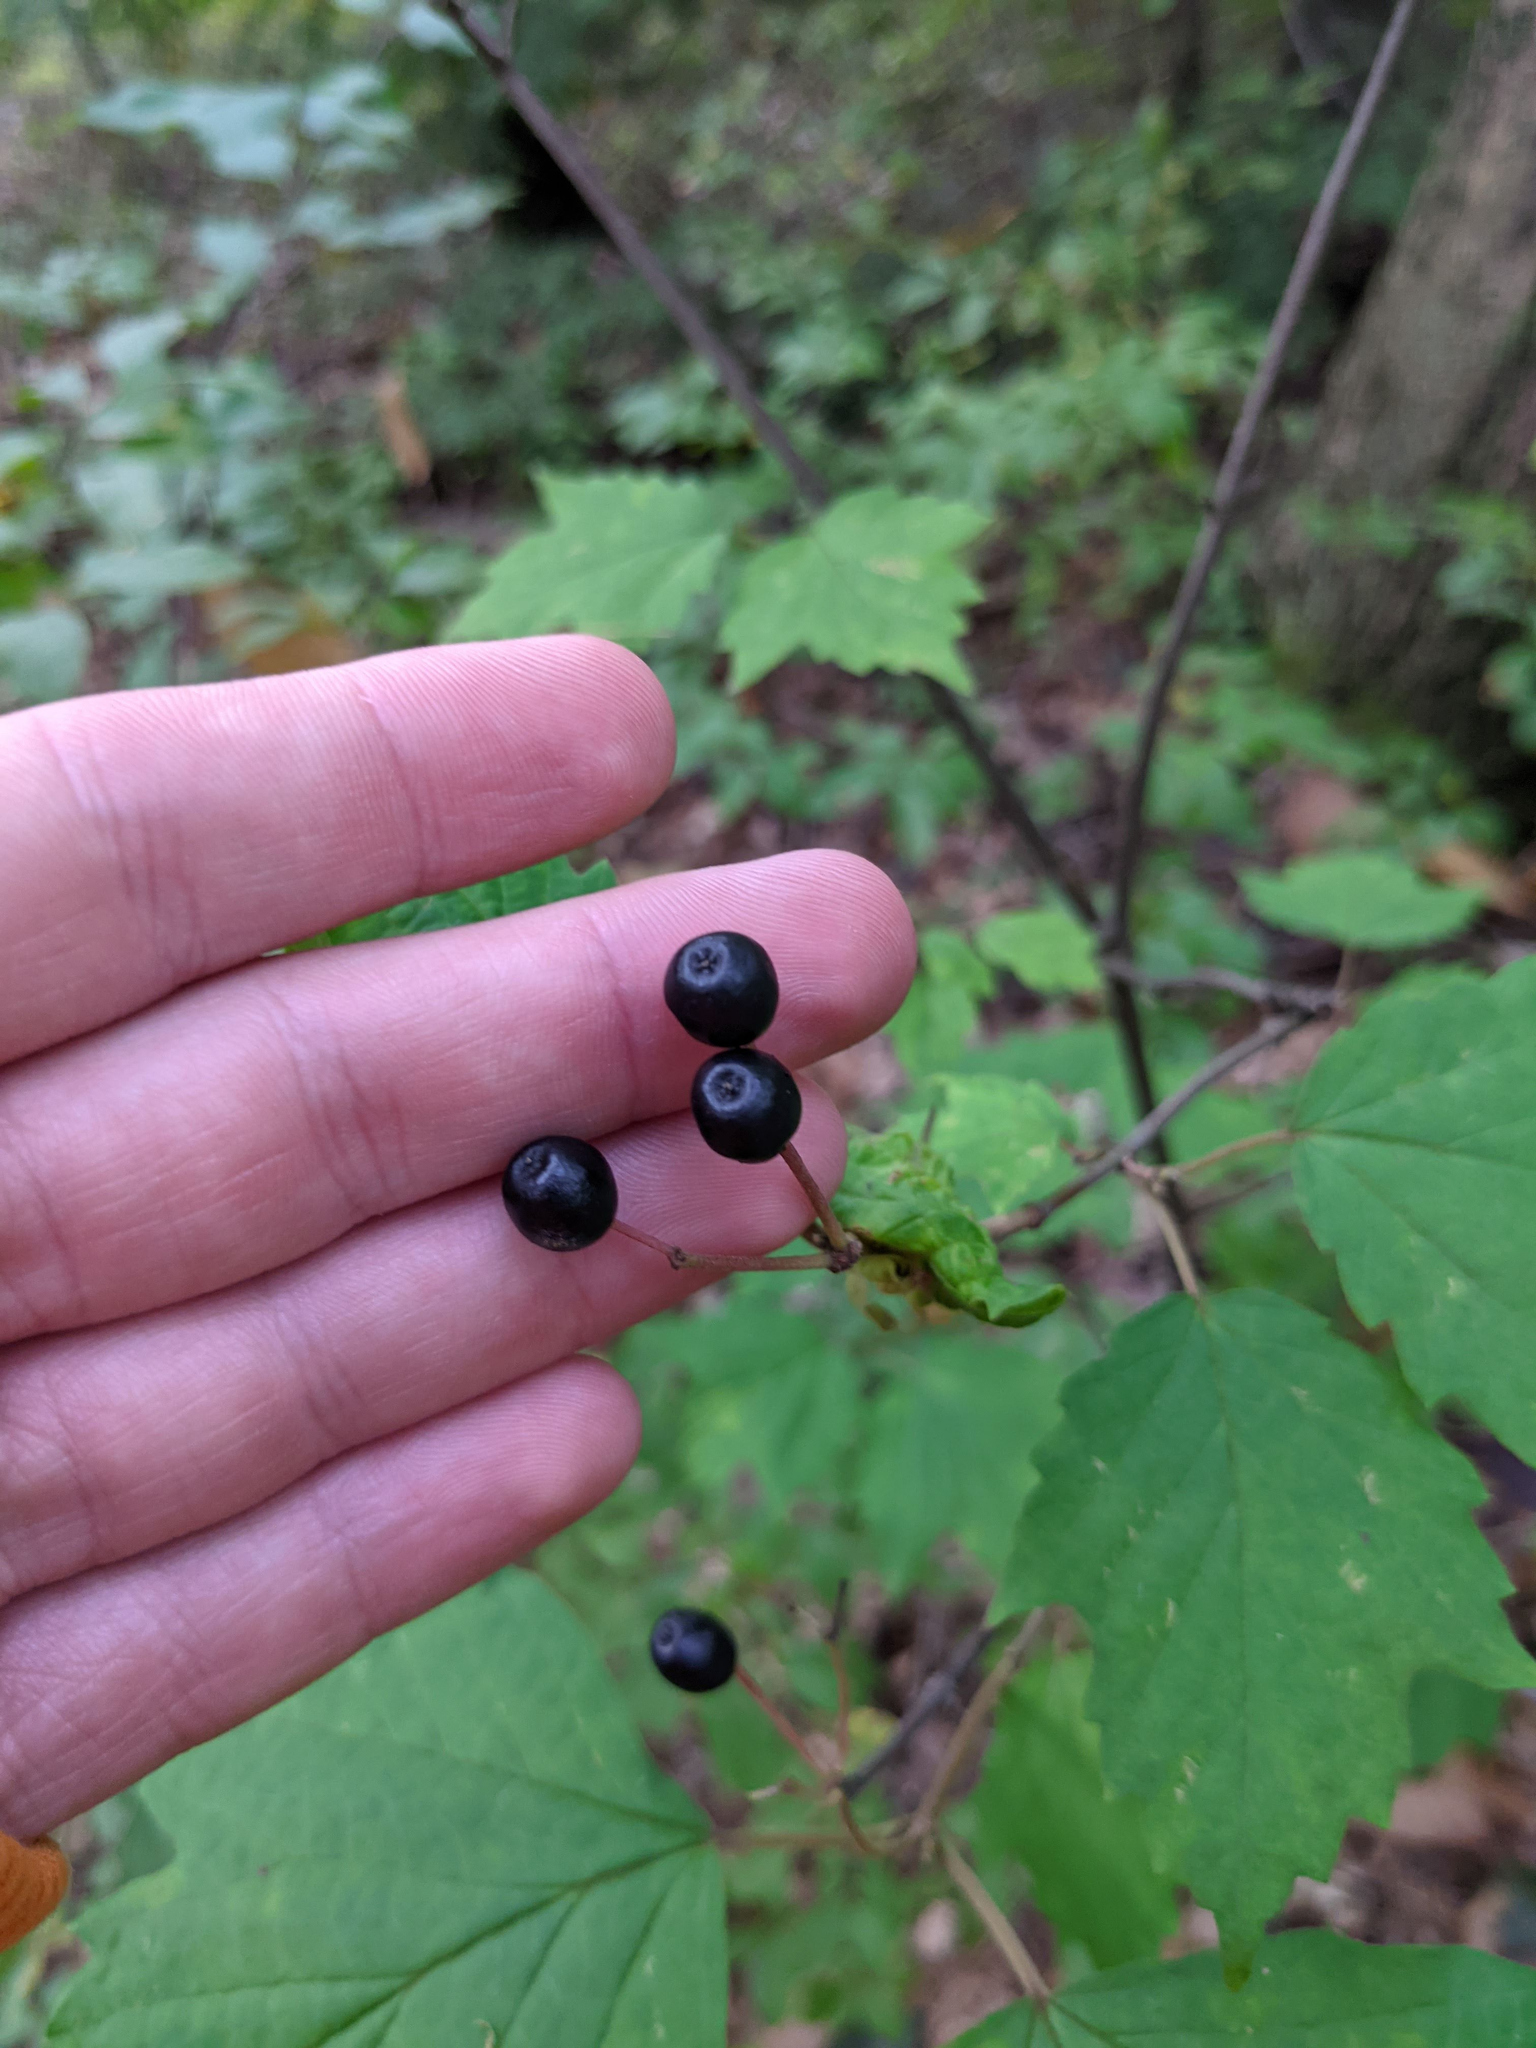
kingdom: Plantae
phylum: Tracheophyta
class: Magnoliopsida
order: Dipsacales
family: Viburnaceae
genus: Viburnum
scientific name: Viburnum acerifolium
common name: Dockmackie
